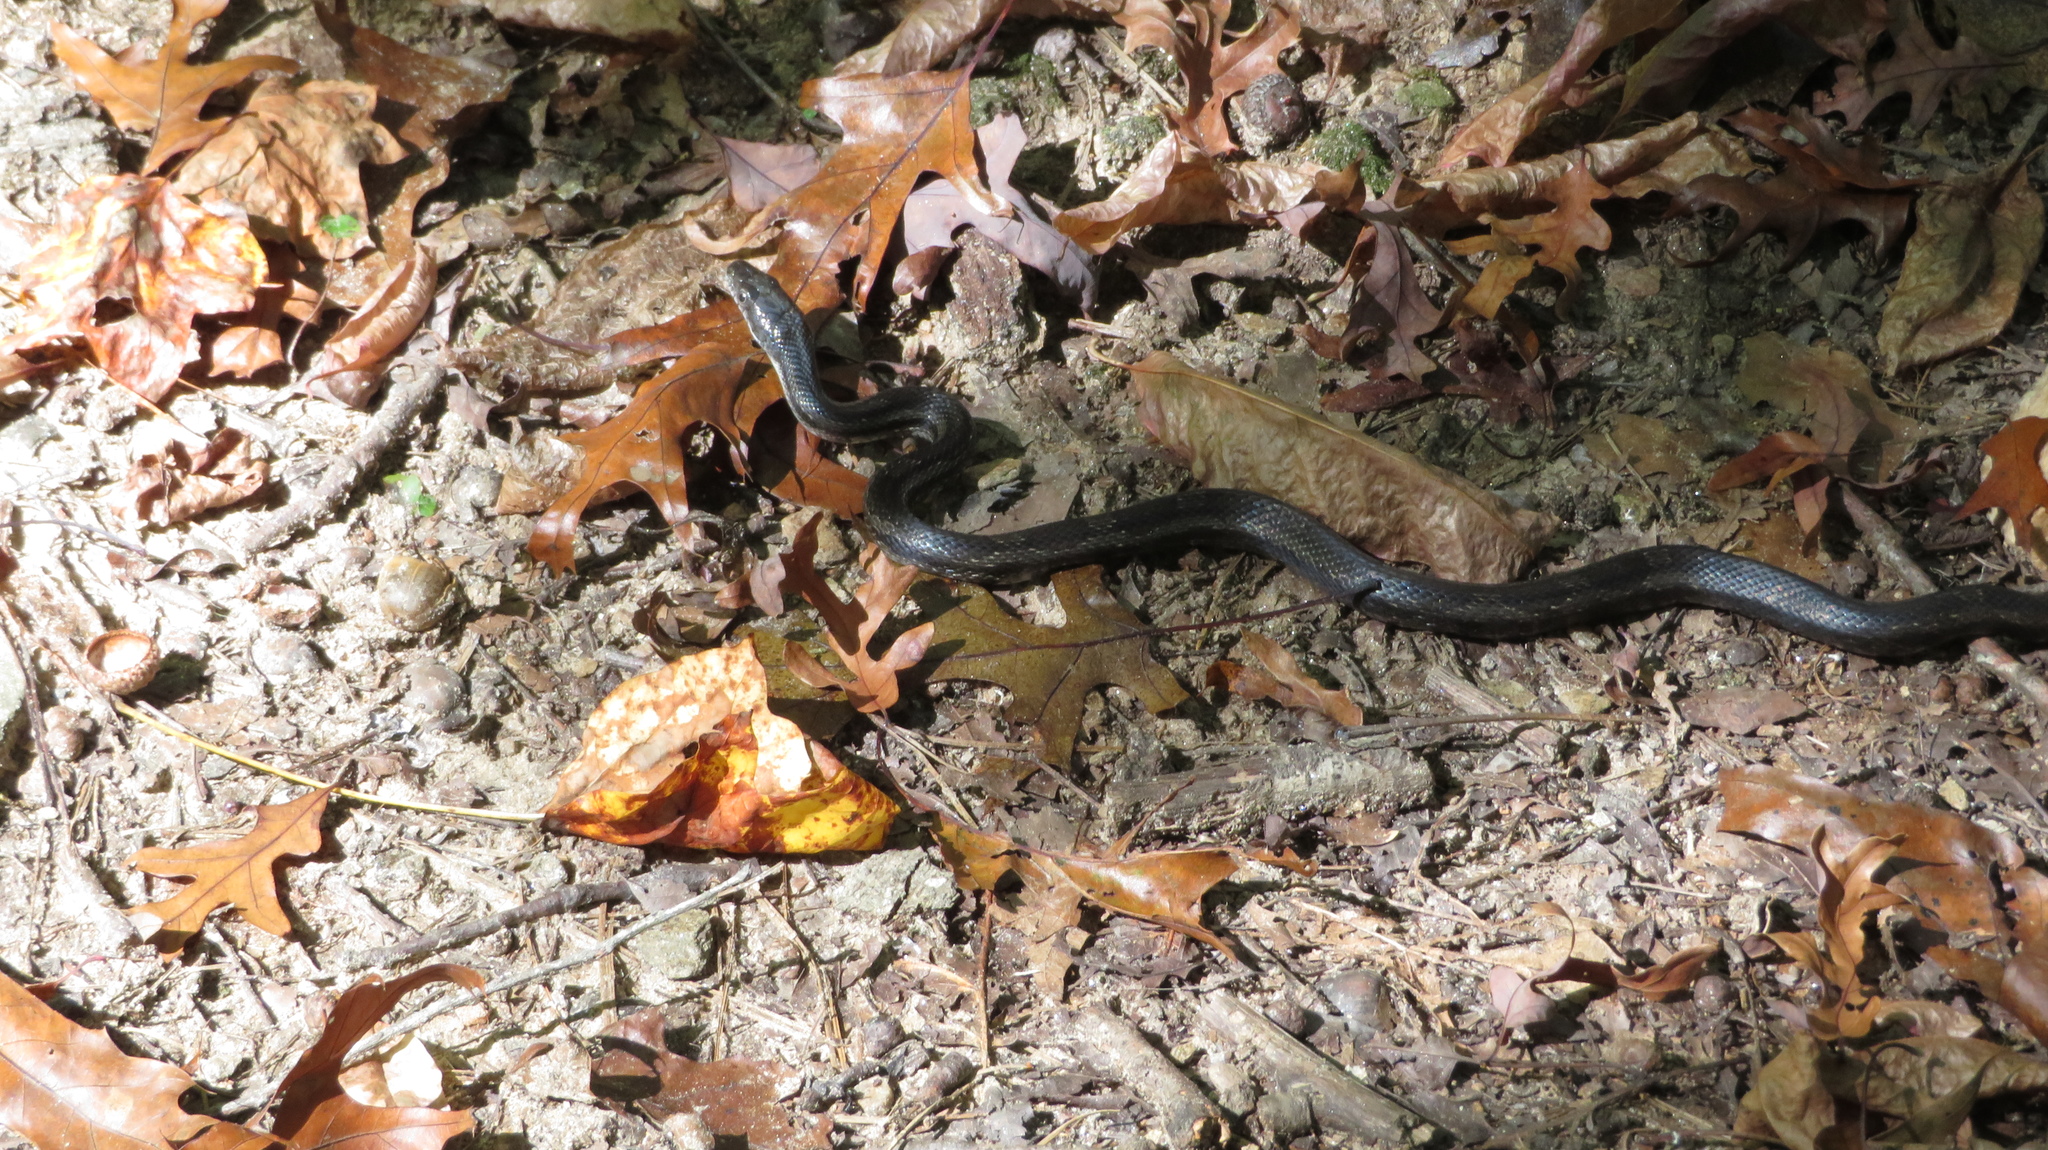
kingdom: Animalia
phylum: Chordata
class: Squamata
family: Colubridae
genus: Pantherophis
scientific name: Pantherophis
